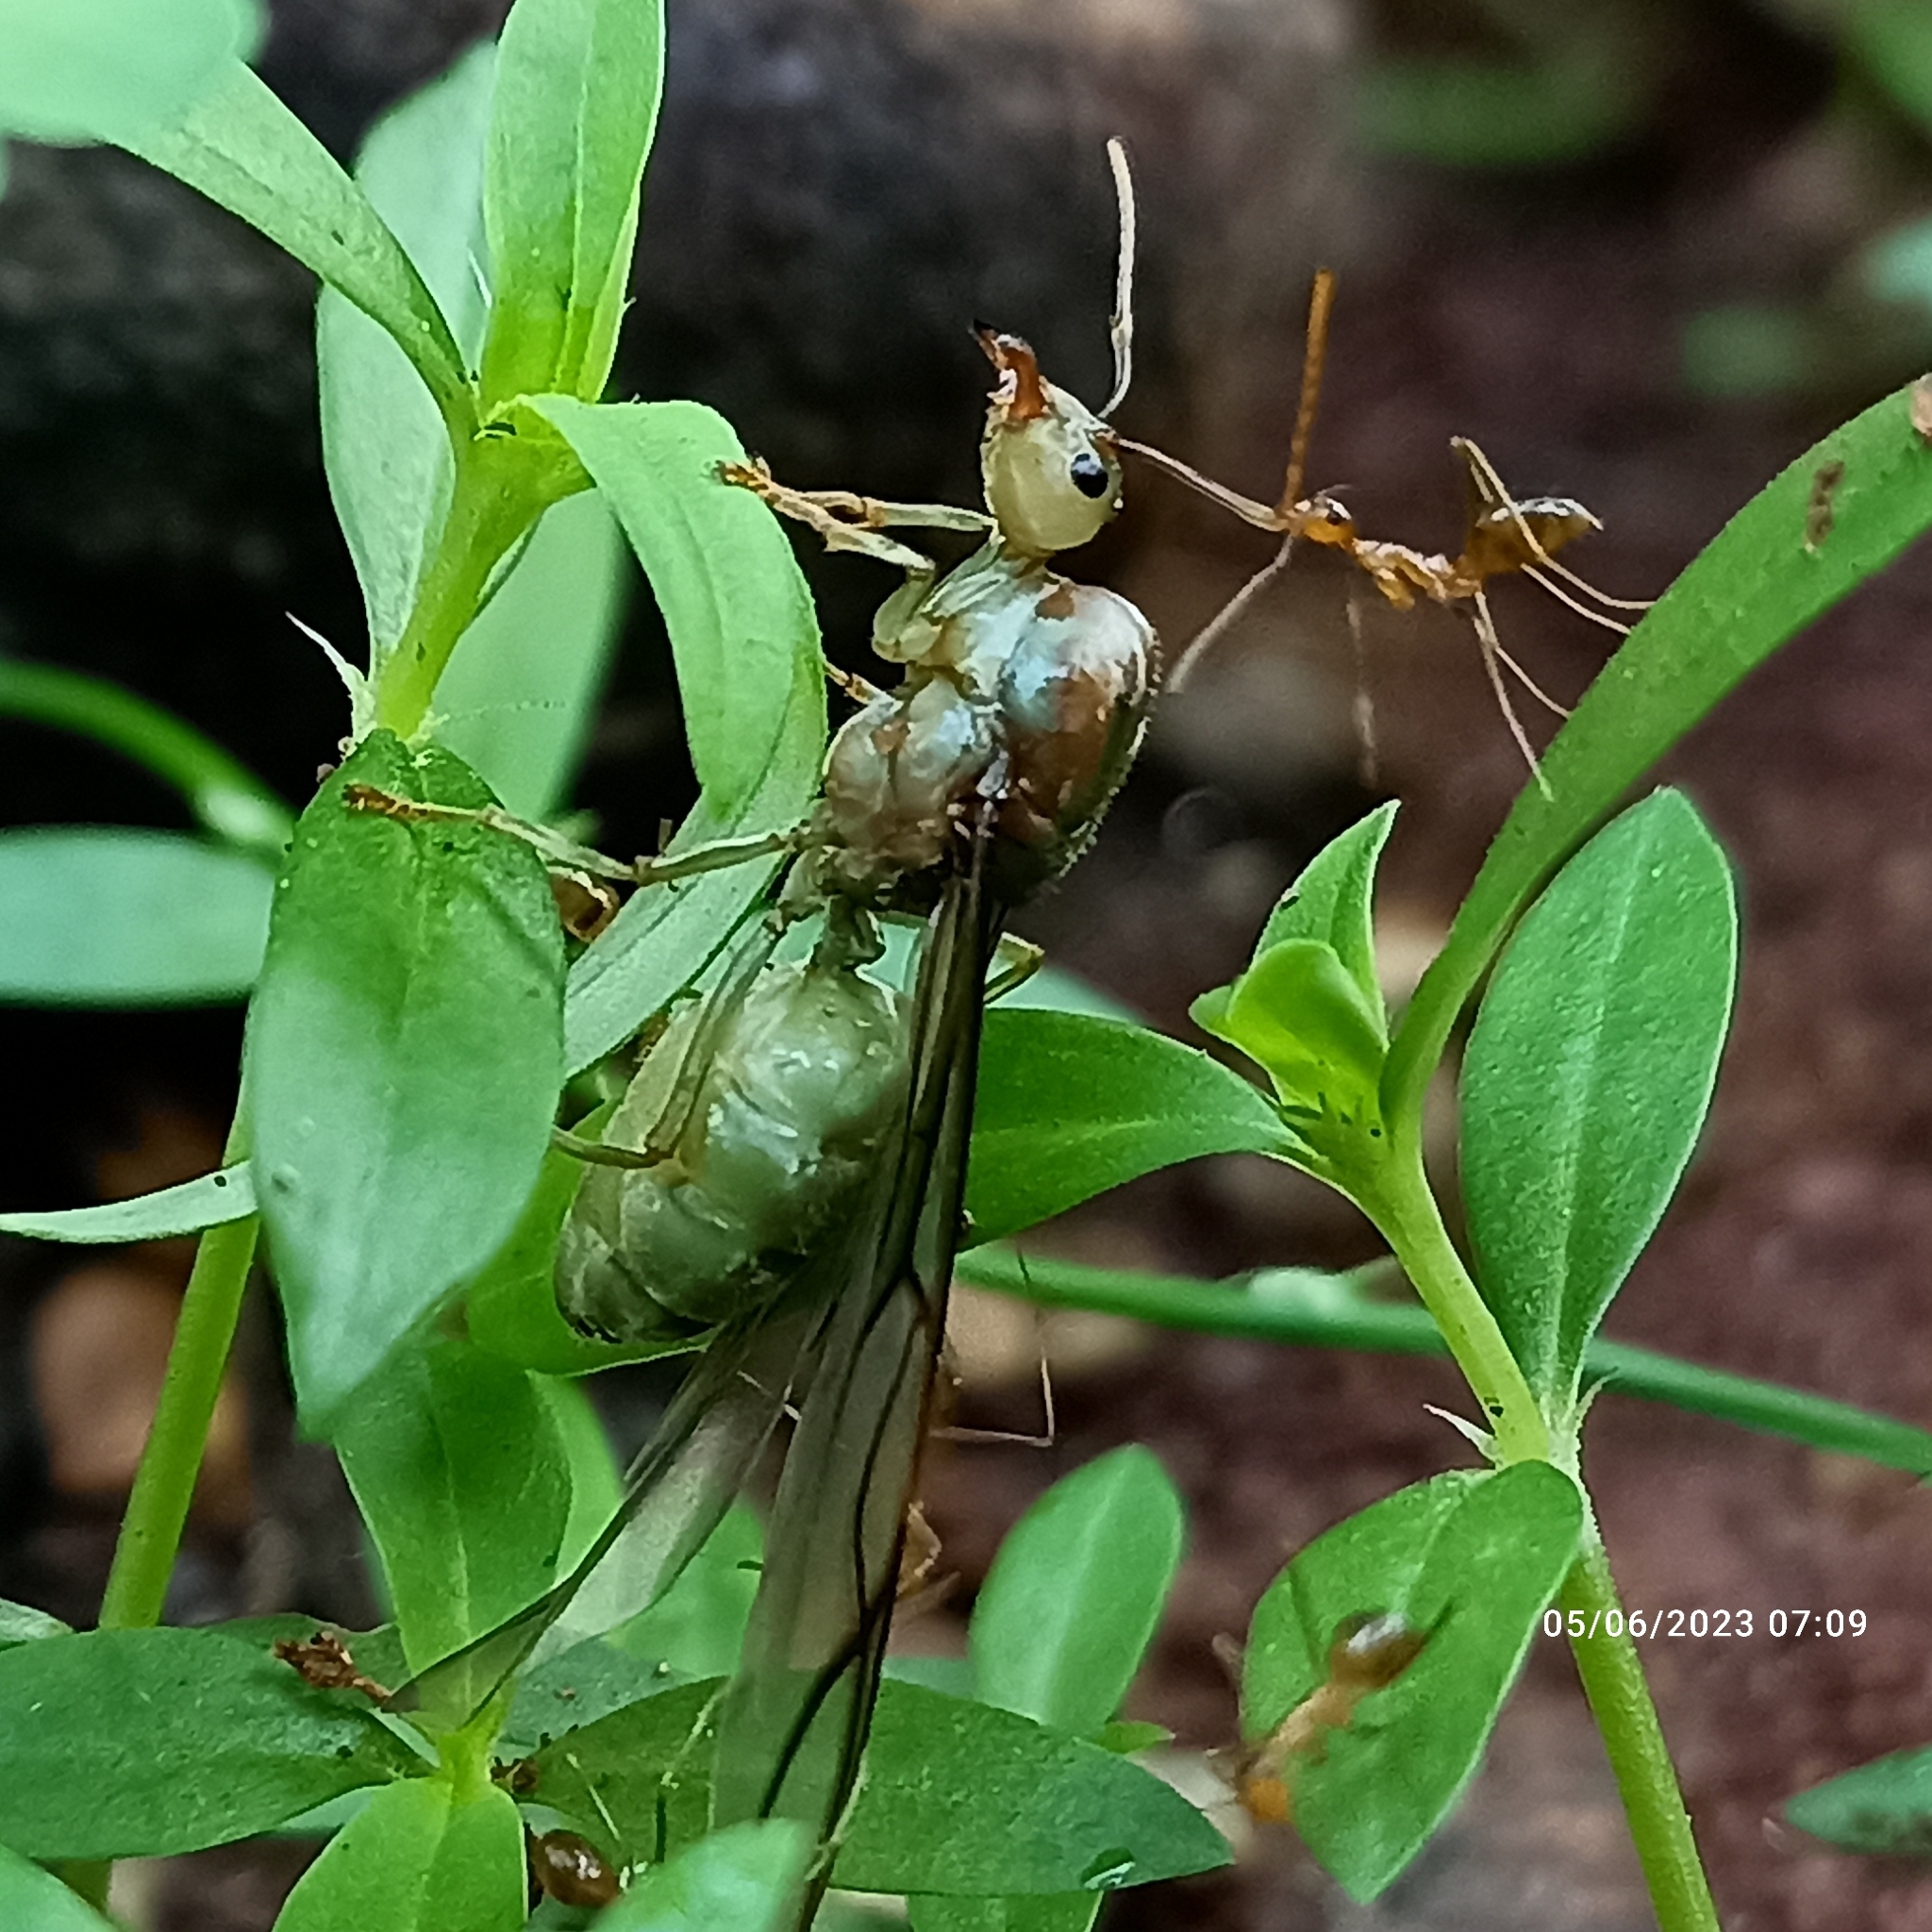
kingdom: Animalia
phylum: Arthropoda
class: Insecta
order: Hymenoptera
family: Formicidae
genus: Oecophylla
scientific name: Oecophylla smaragdina
